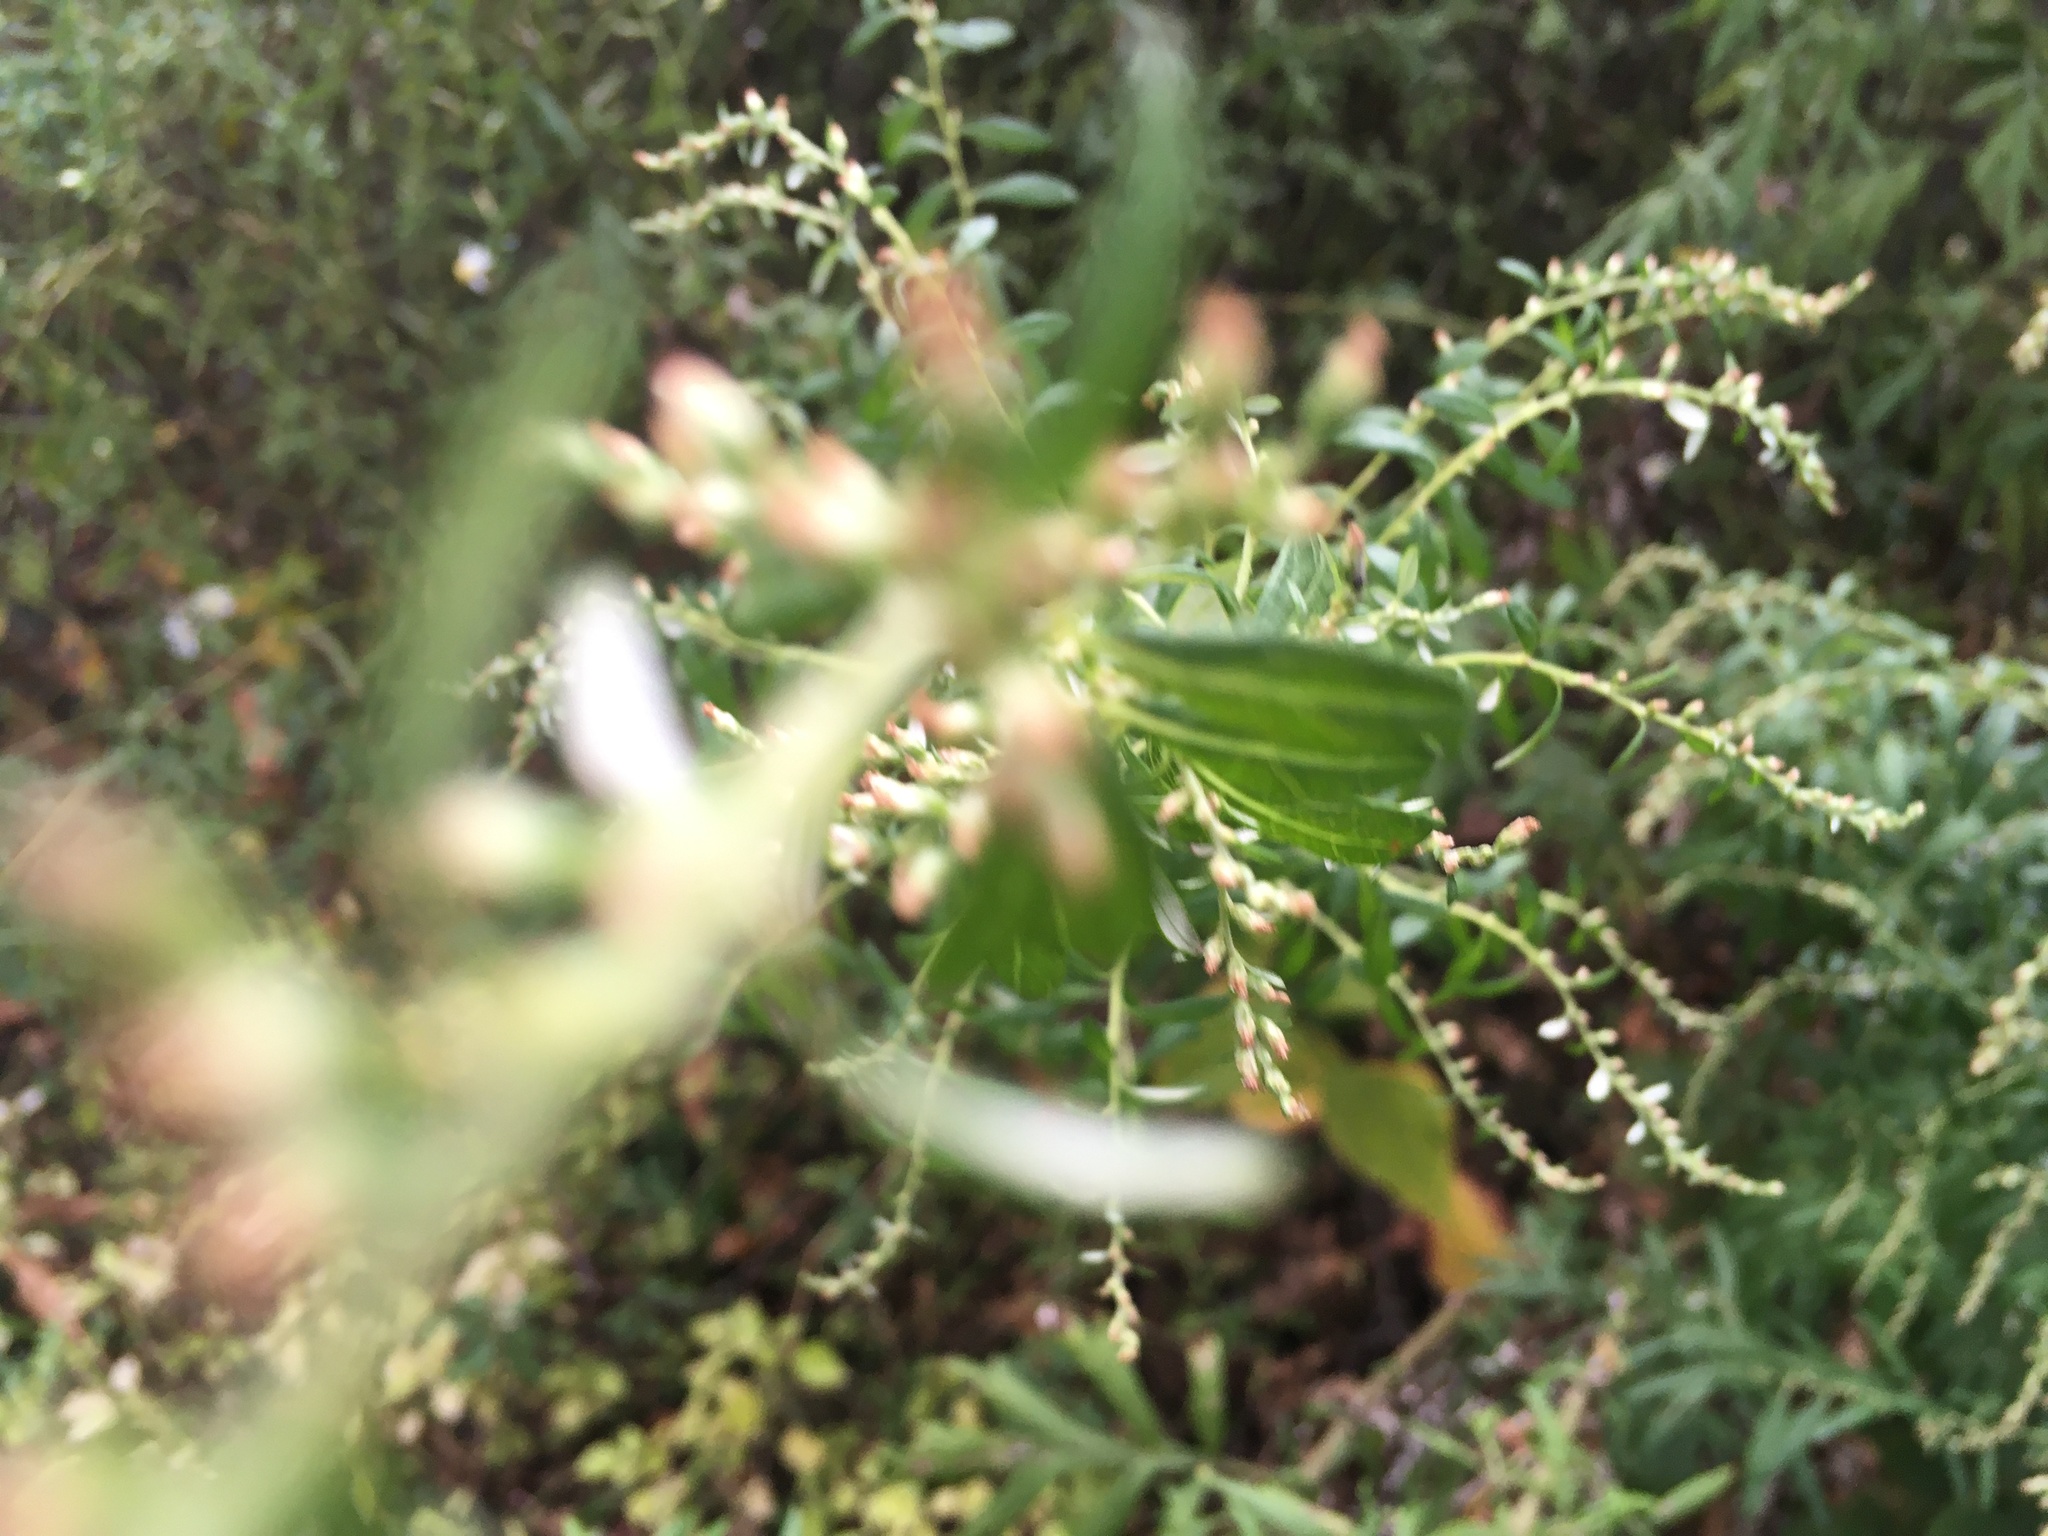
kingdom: Plantae
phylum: Tracheophyta
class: Magnoliopsida
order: Asterales
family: Asteraceae
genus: Artemisia
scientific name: Artemisia vulgaris
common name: Mugwort
